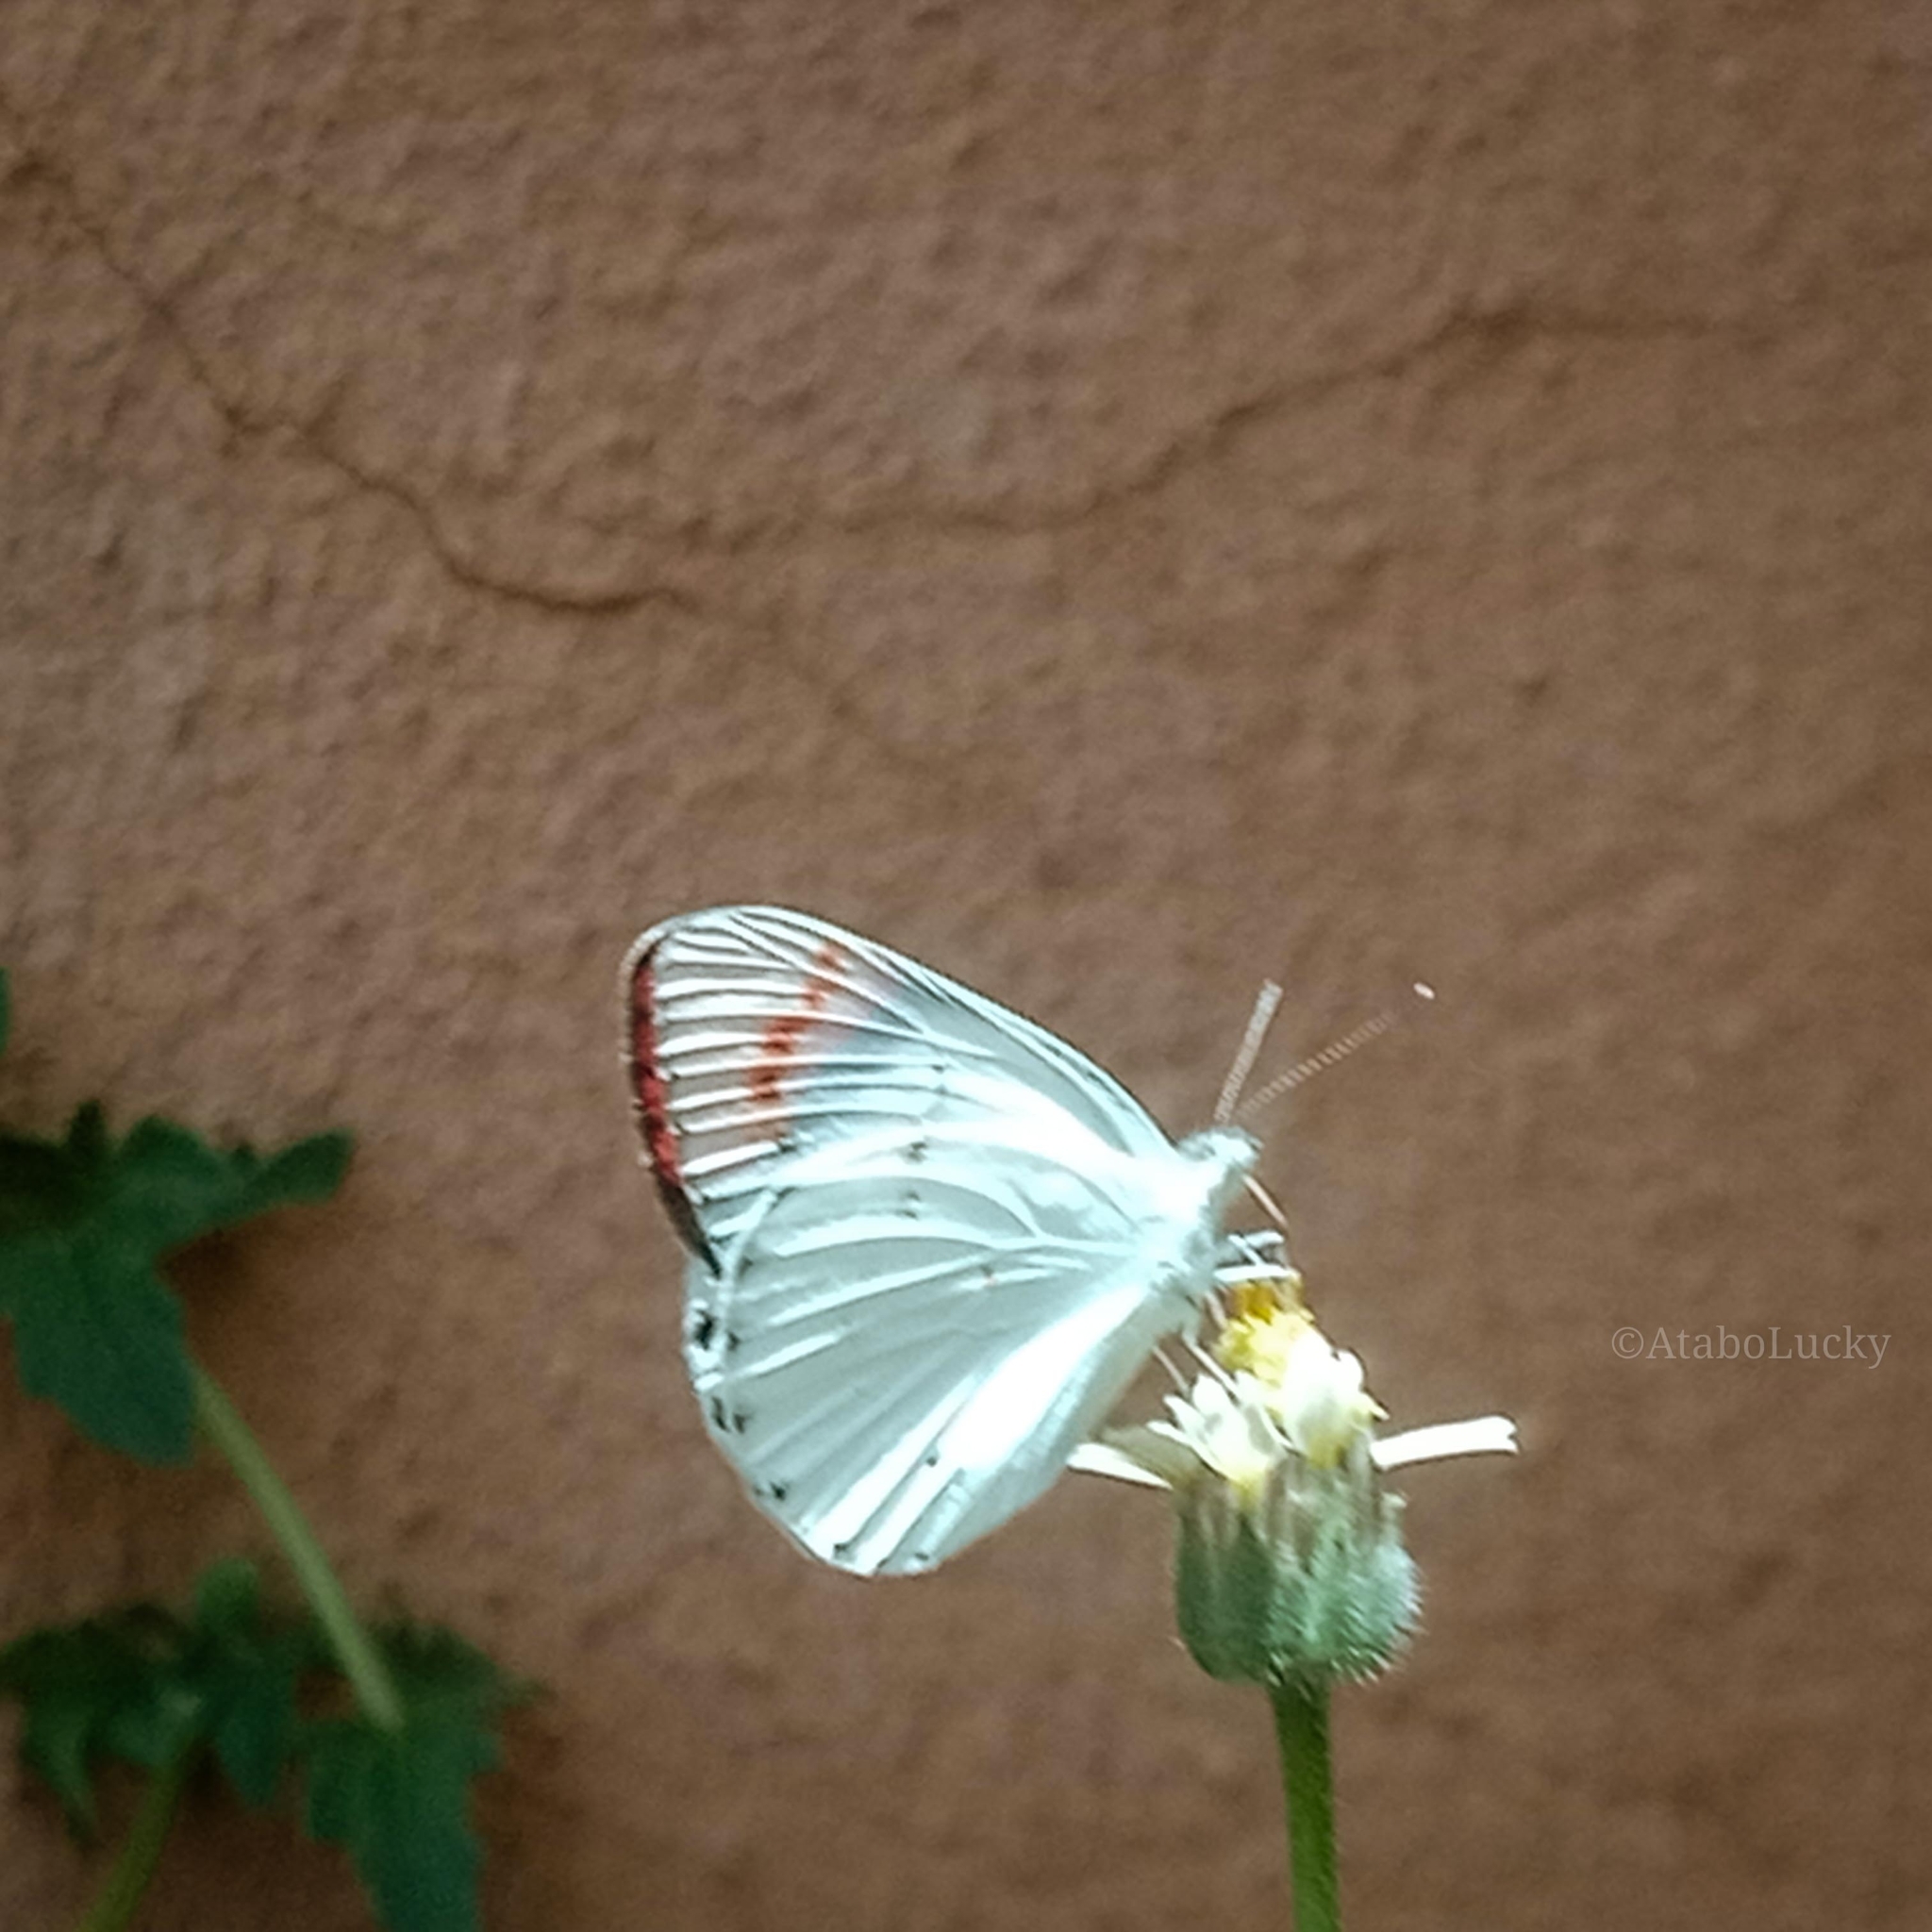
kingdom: Animalia
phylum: Arthropoda
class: Insecta
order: Lepidoptera
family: Pieridae
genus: Colotis
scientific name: Colotis danae
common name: Crimson tip
